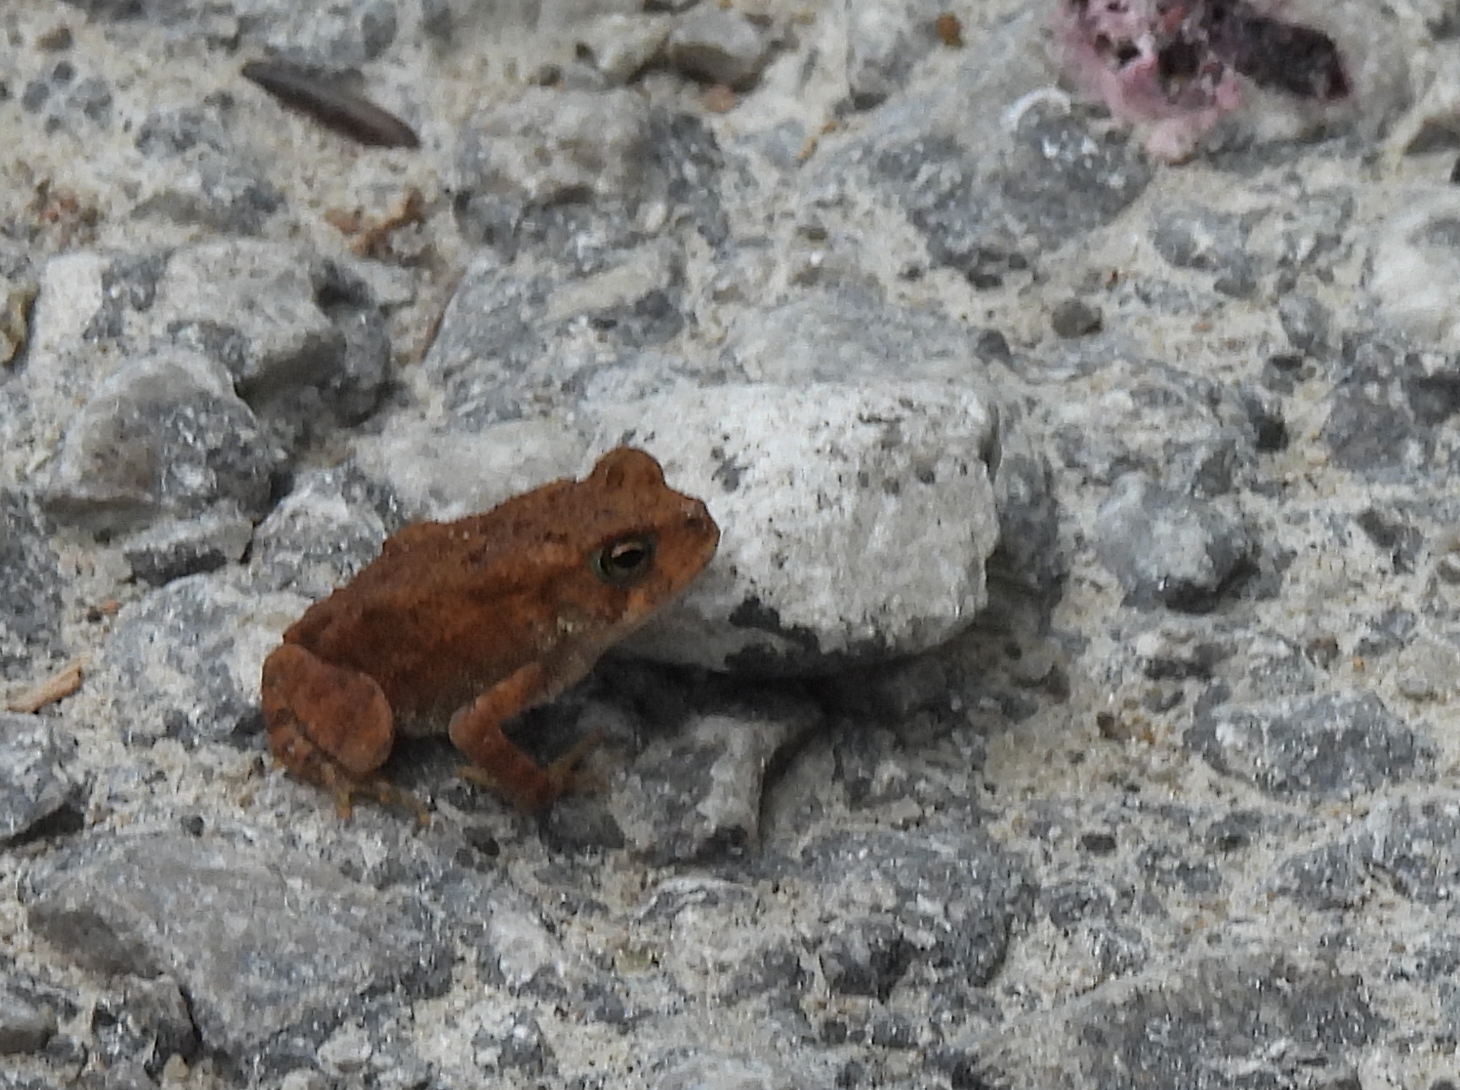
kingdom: Animalia
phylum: Chordata
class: Amphibia
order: Anura
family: Bufonidae
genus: Anaxyrus
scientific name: Anaxyrus americanus
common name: American toad
